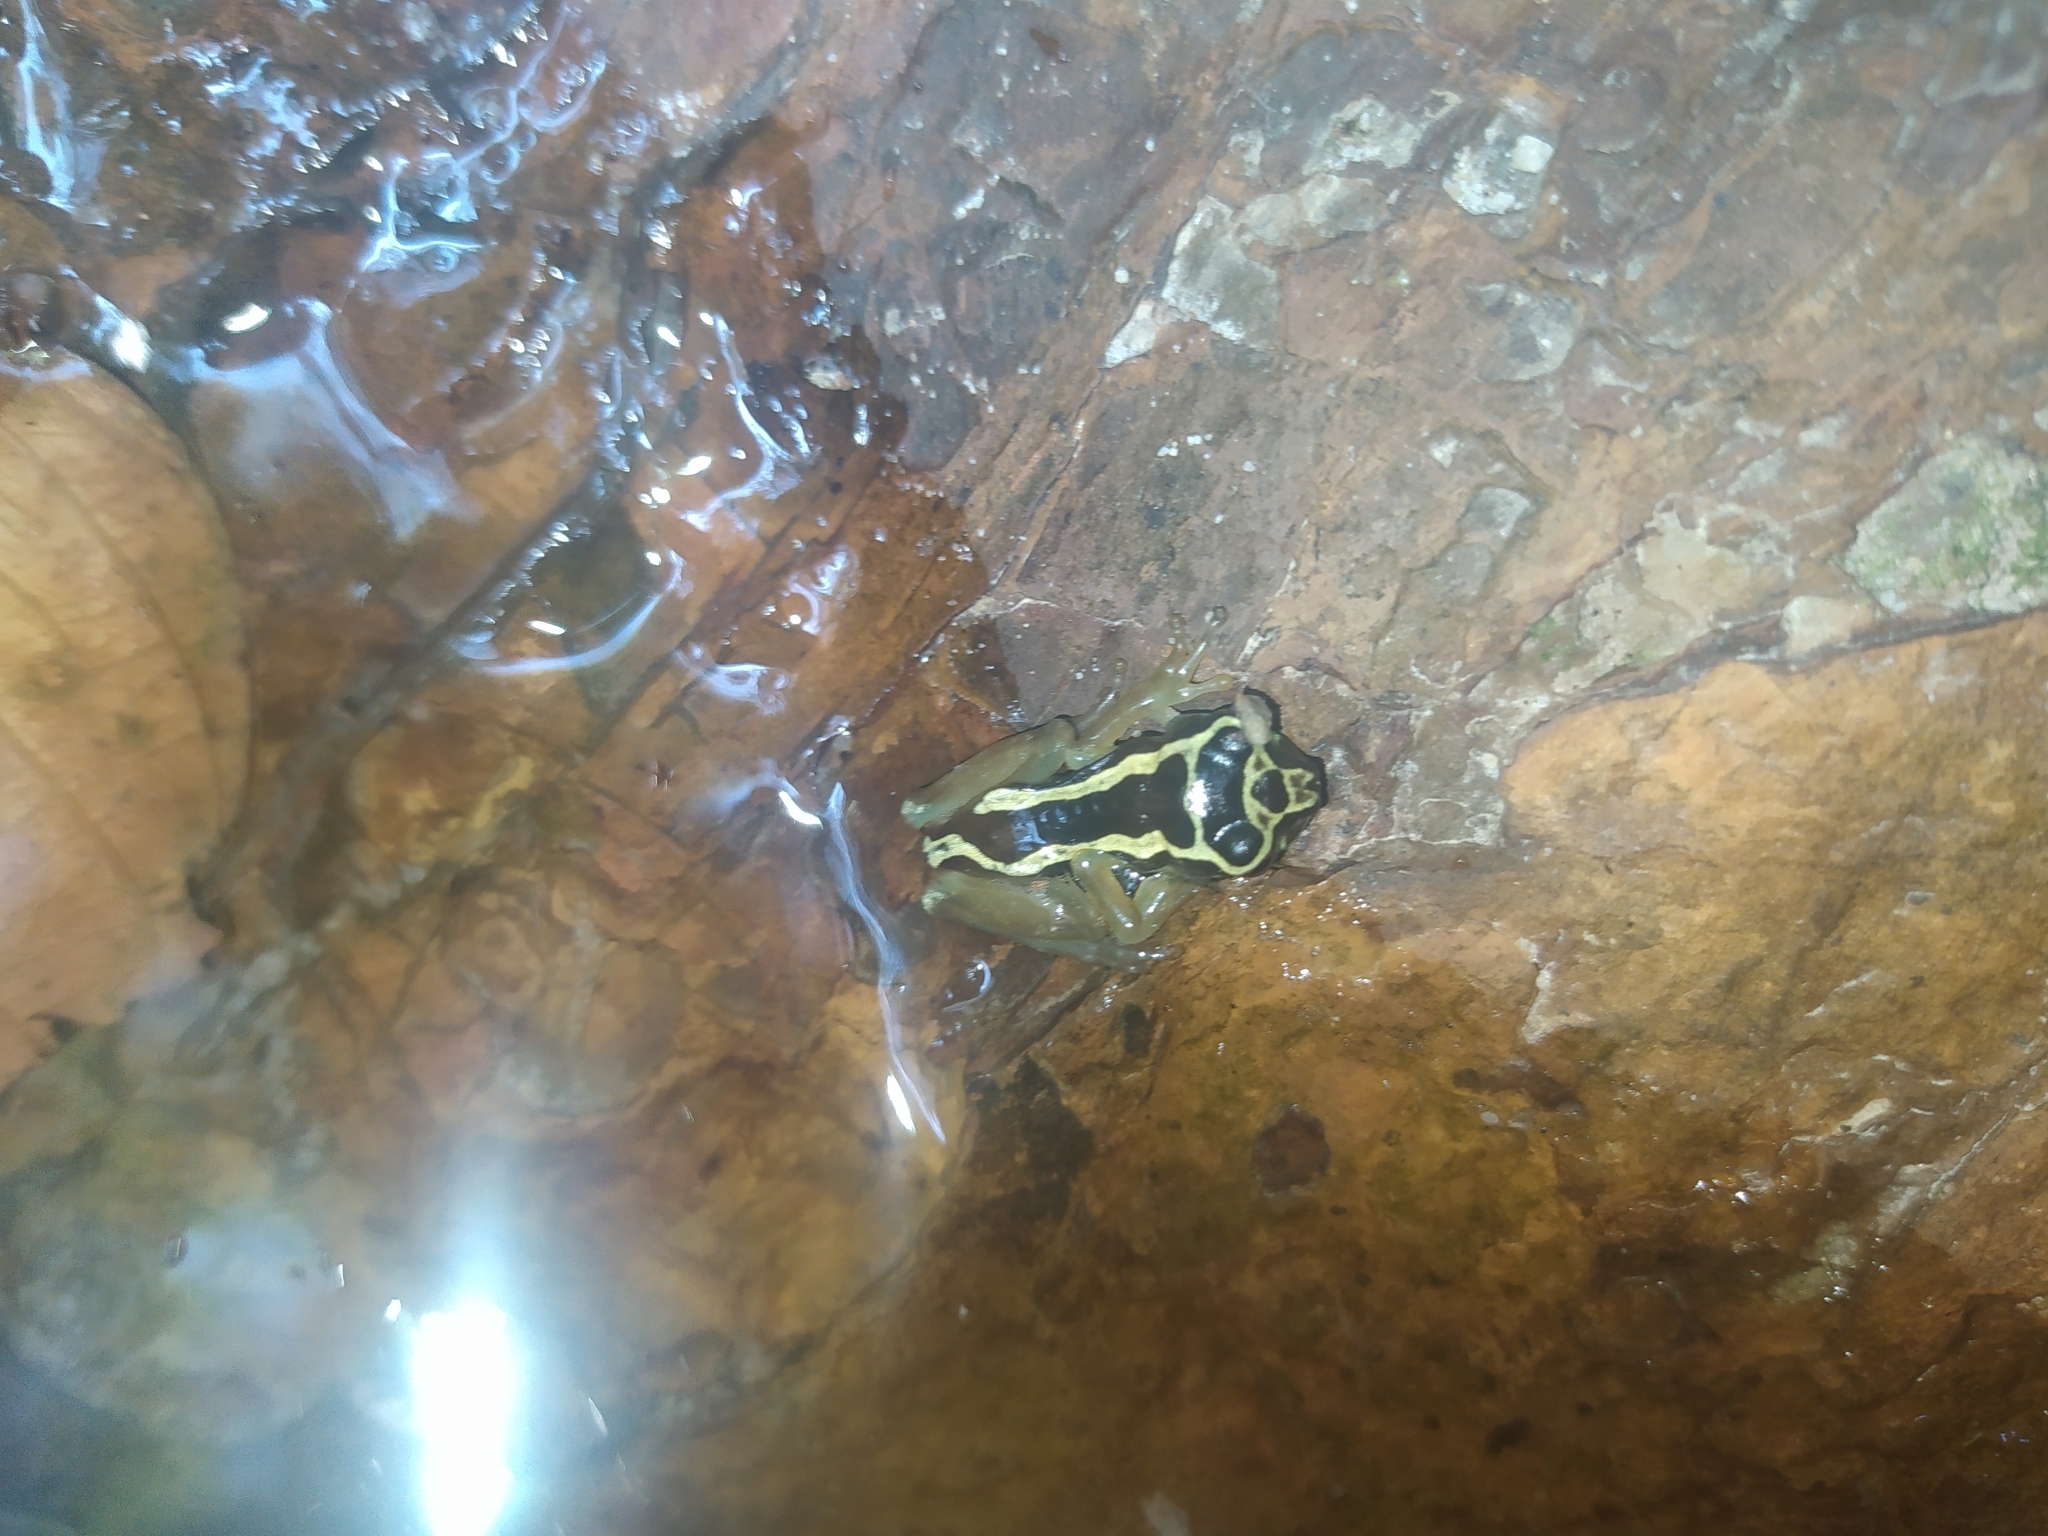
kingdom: Animalia
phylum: Chordata
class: Amphibia
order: Anura
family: Hylidae
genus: Osteocephalus
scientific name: Osteocephalus carri
